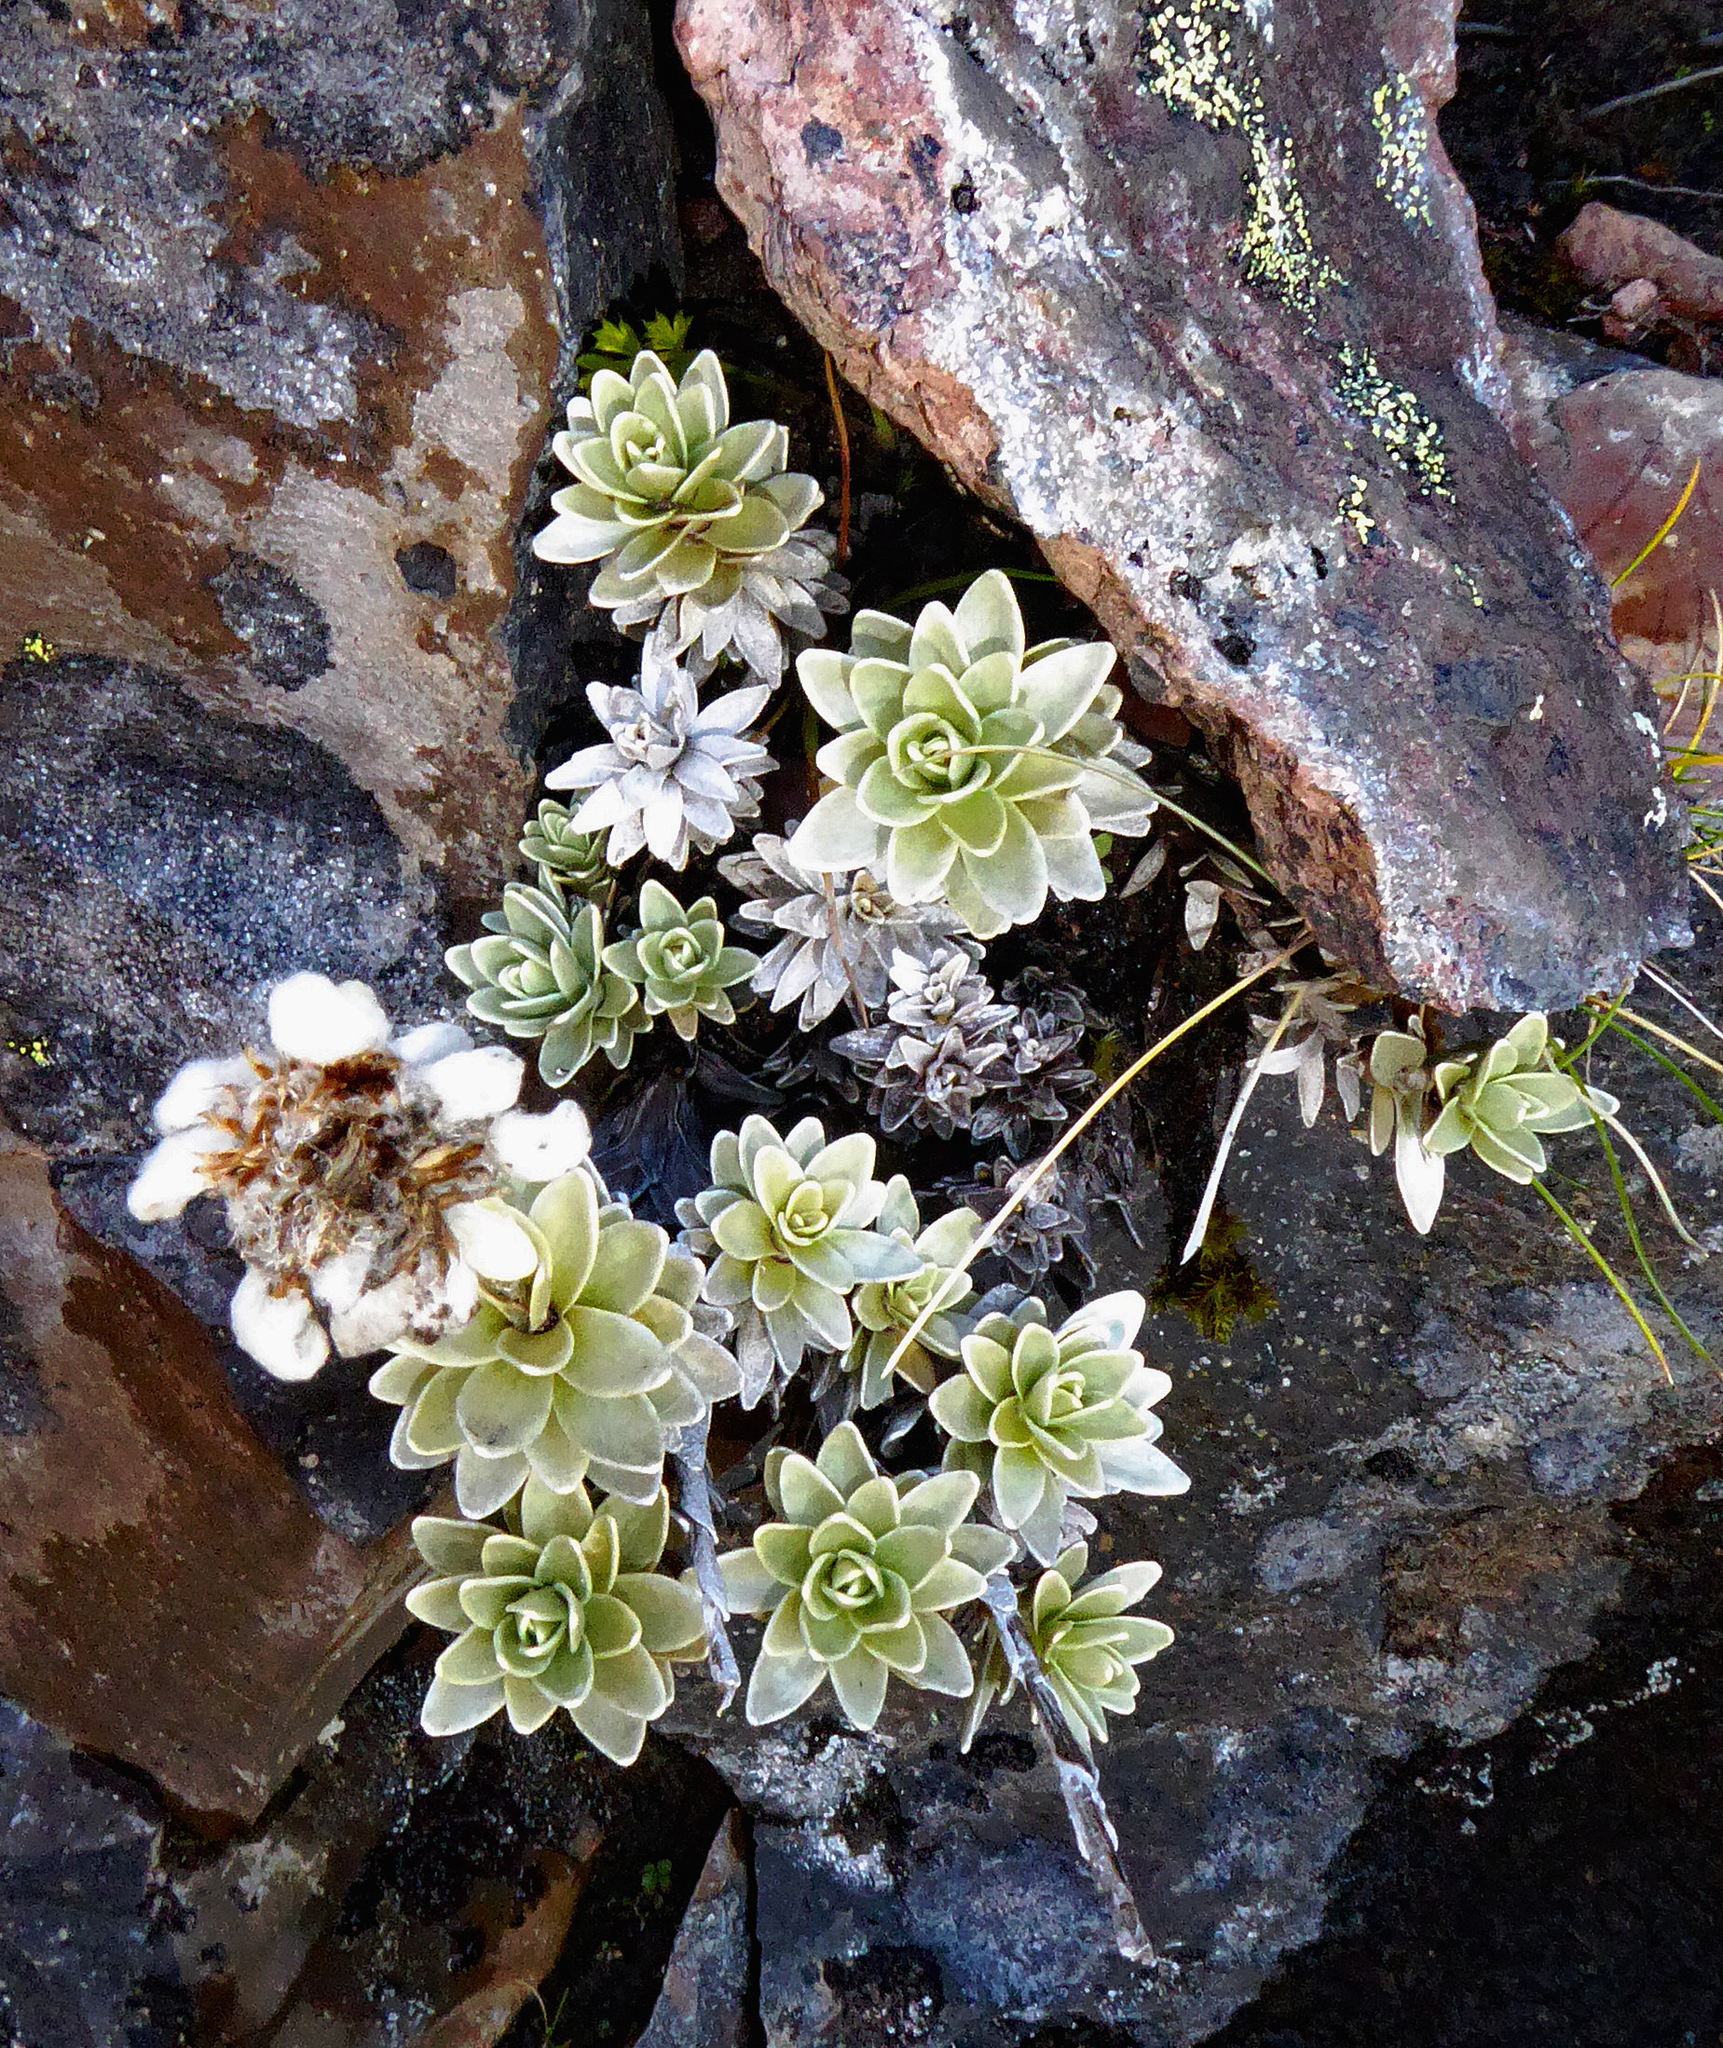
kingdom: Plantae
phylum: Tracheophyta
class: Magnoliopsida
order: Asterales
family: Asteraceae
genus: Leucogenes
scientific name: Leucogenes leontopodium
